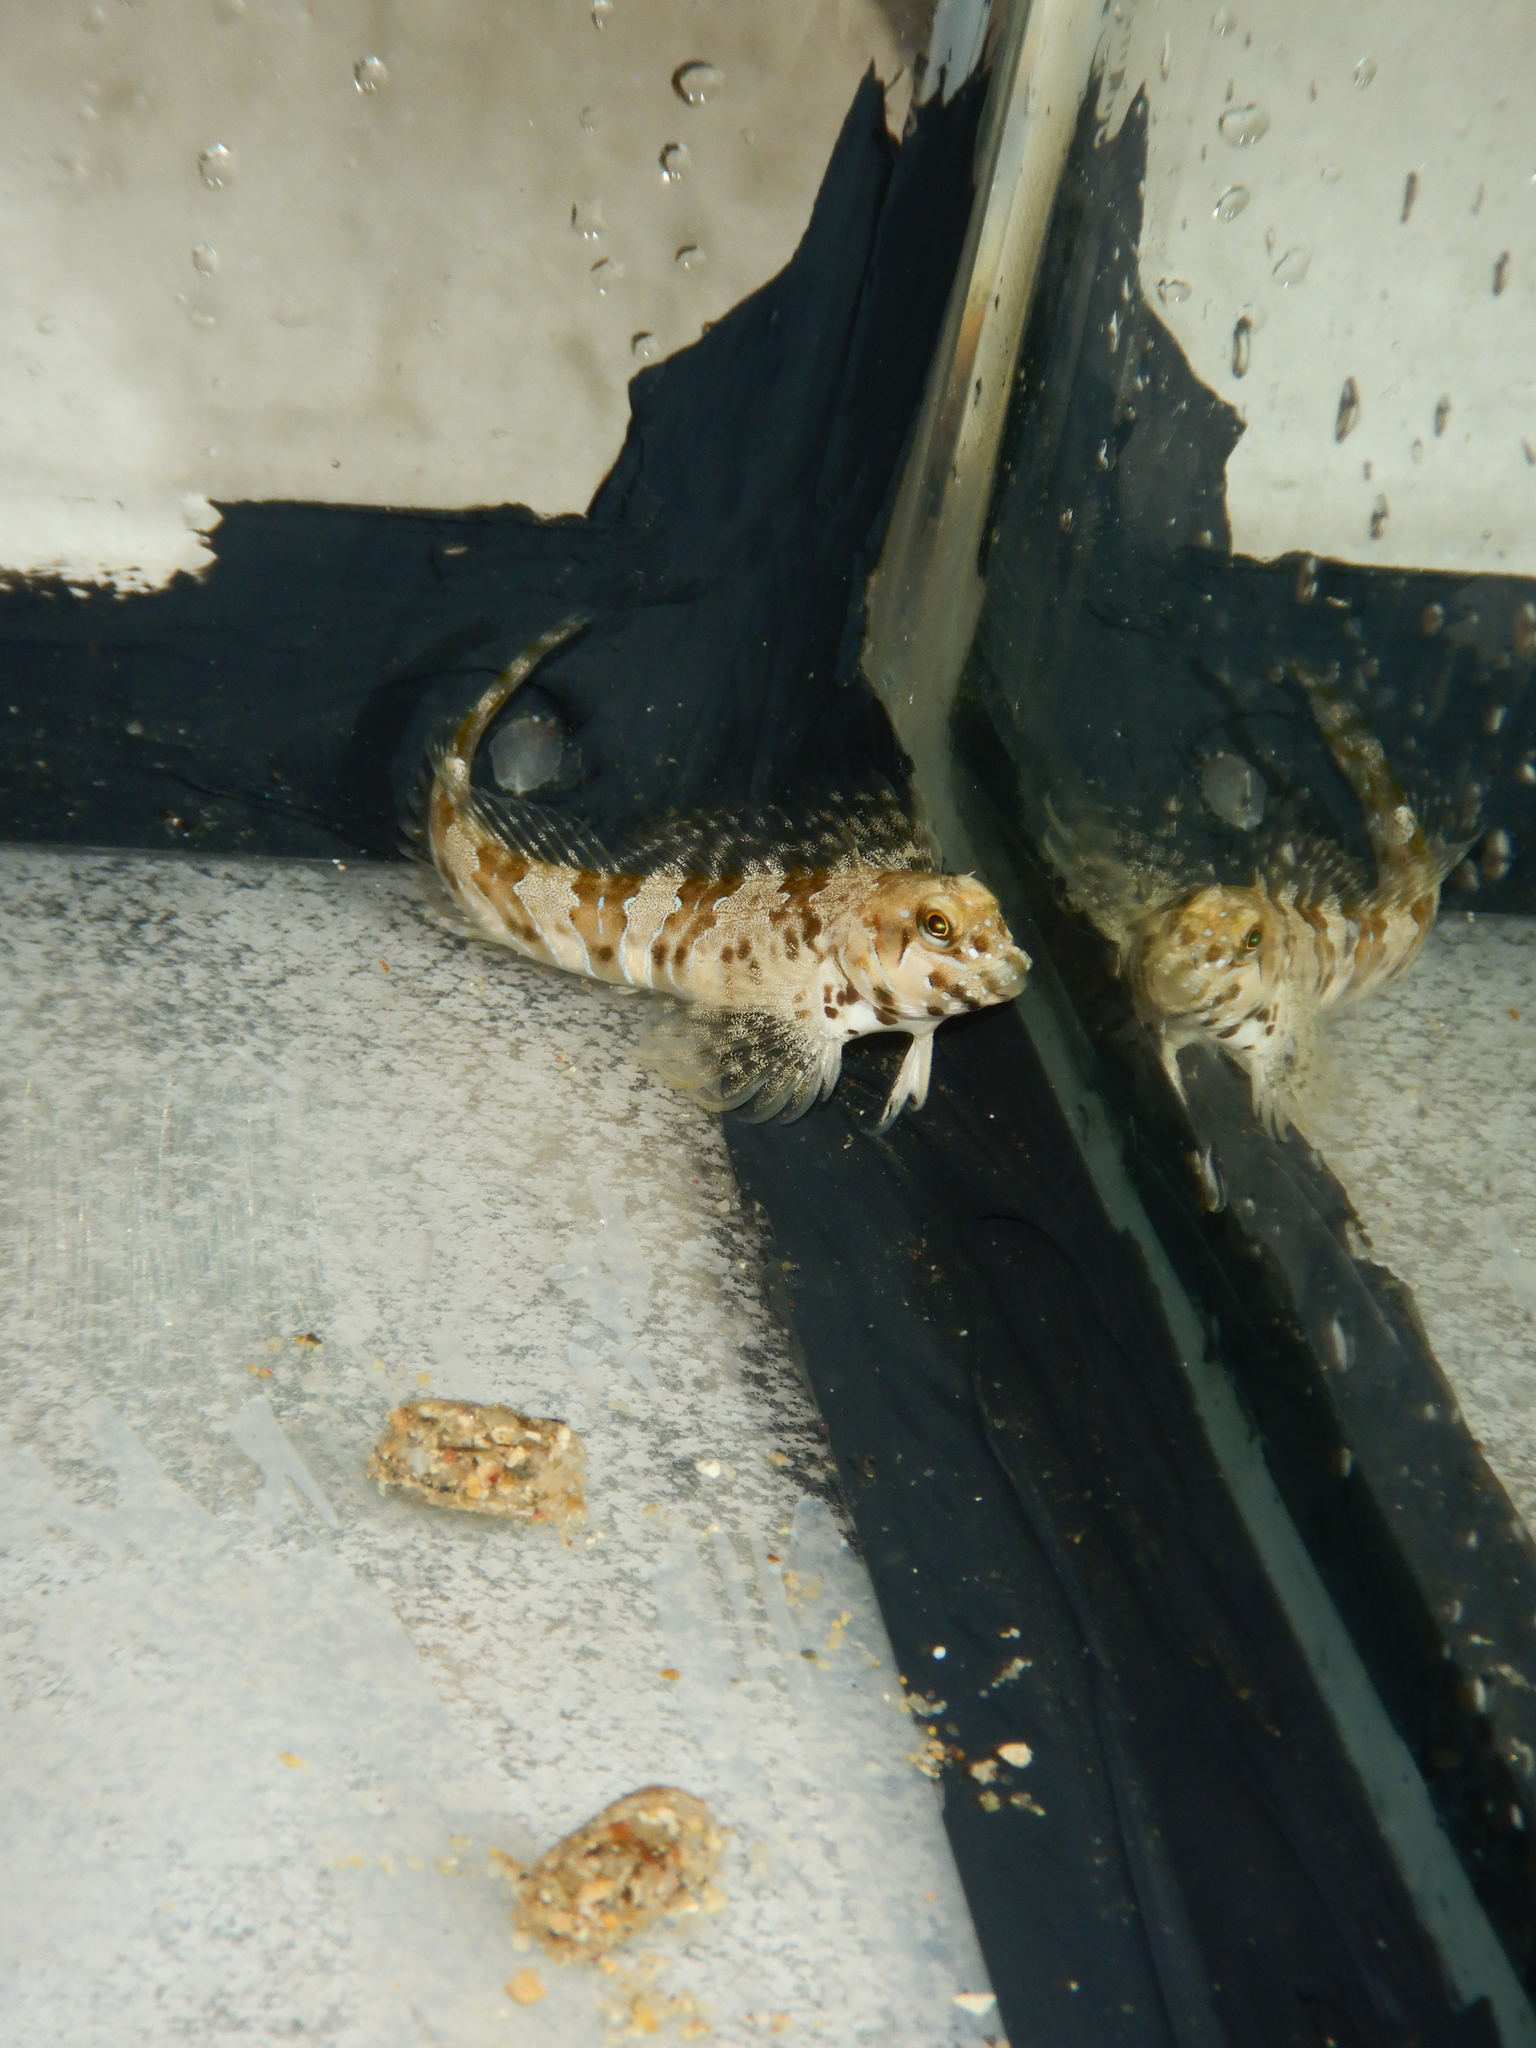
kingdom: Animalia
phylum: Chordata
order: Perciformes
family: Blenniidae
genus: Aidablennius
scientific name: Aidablennius sphynx
